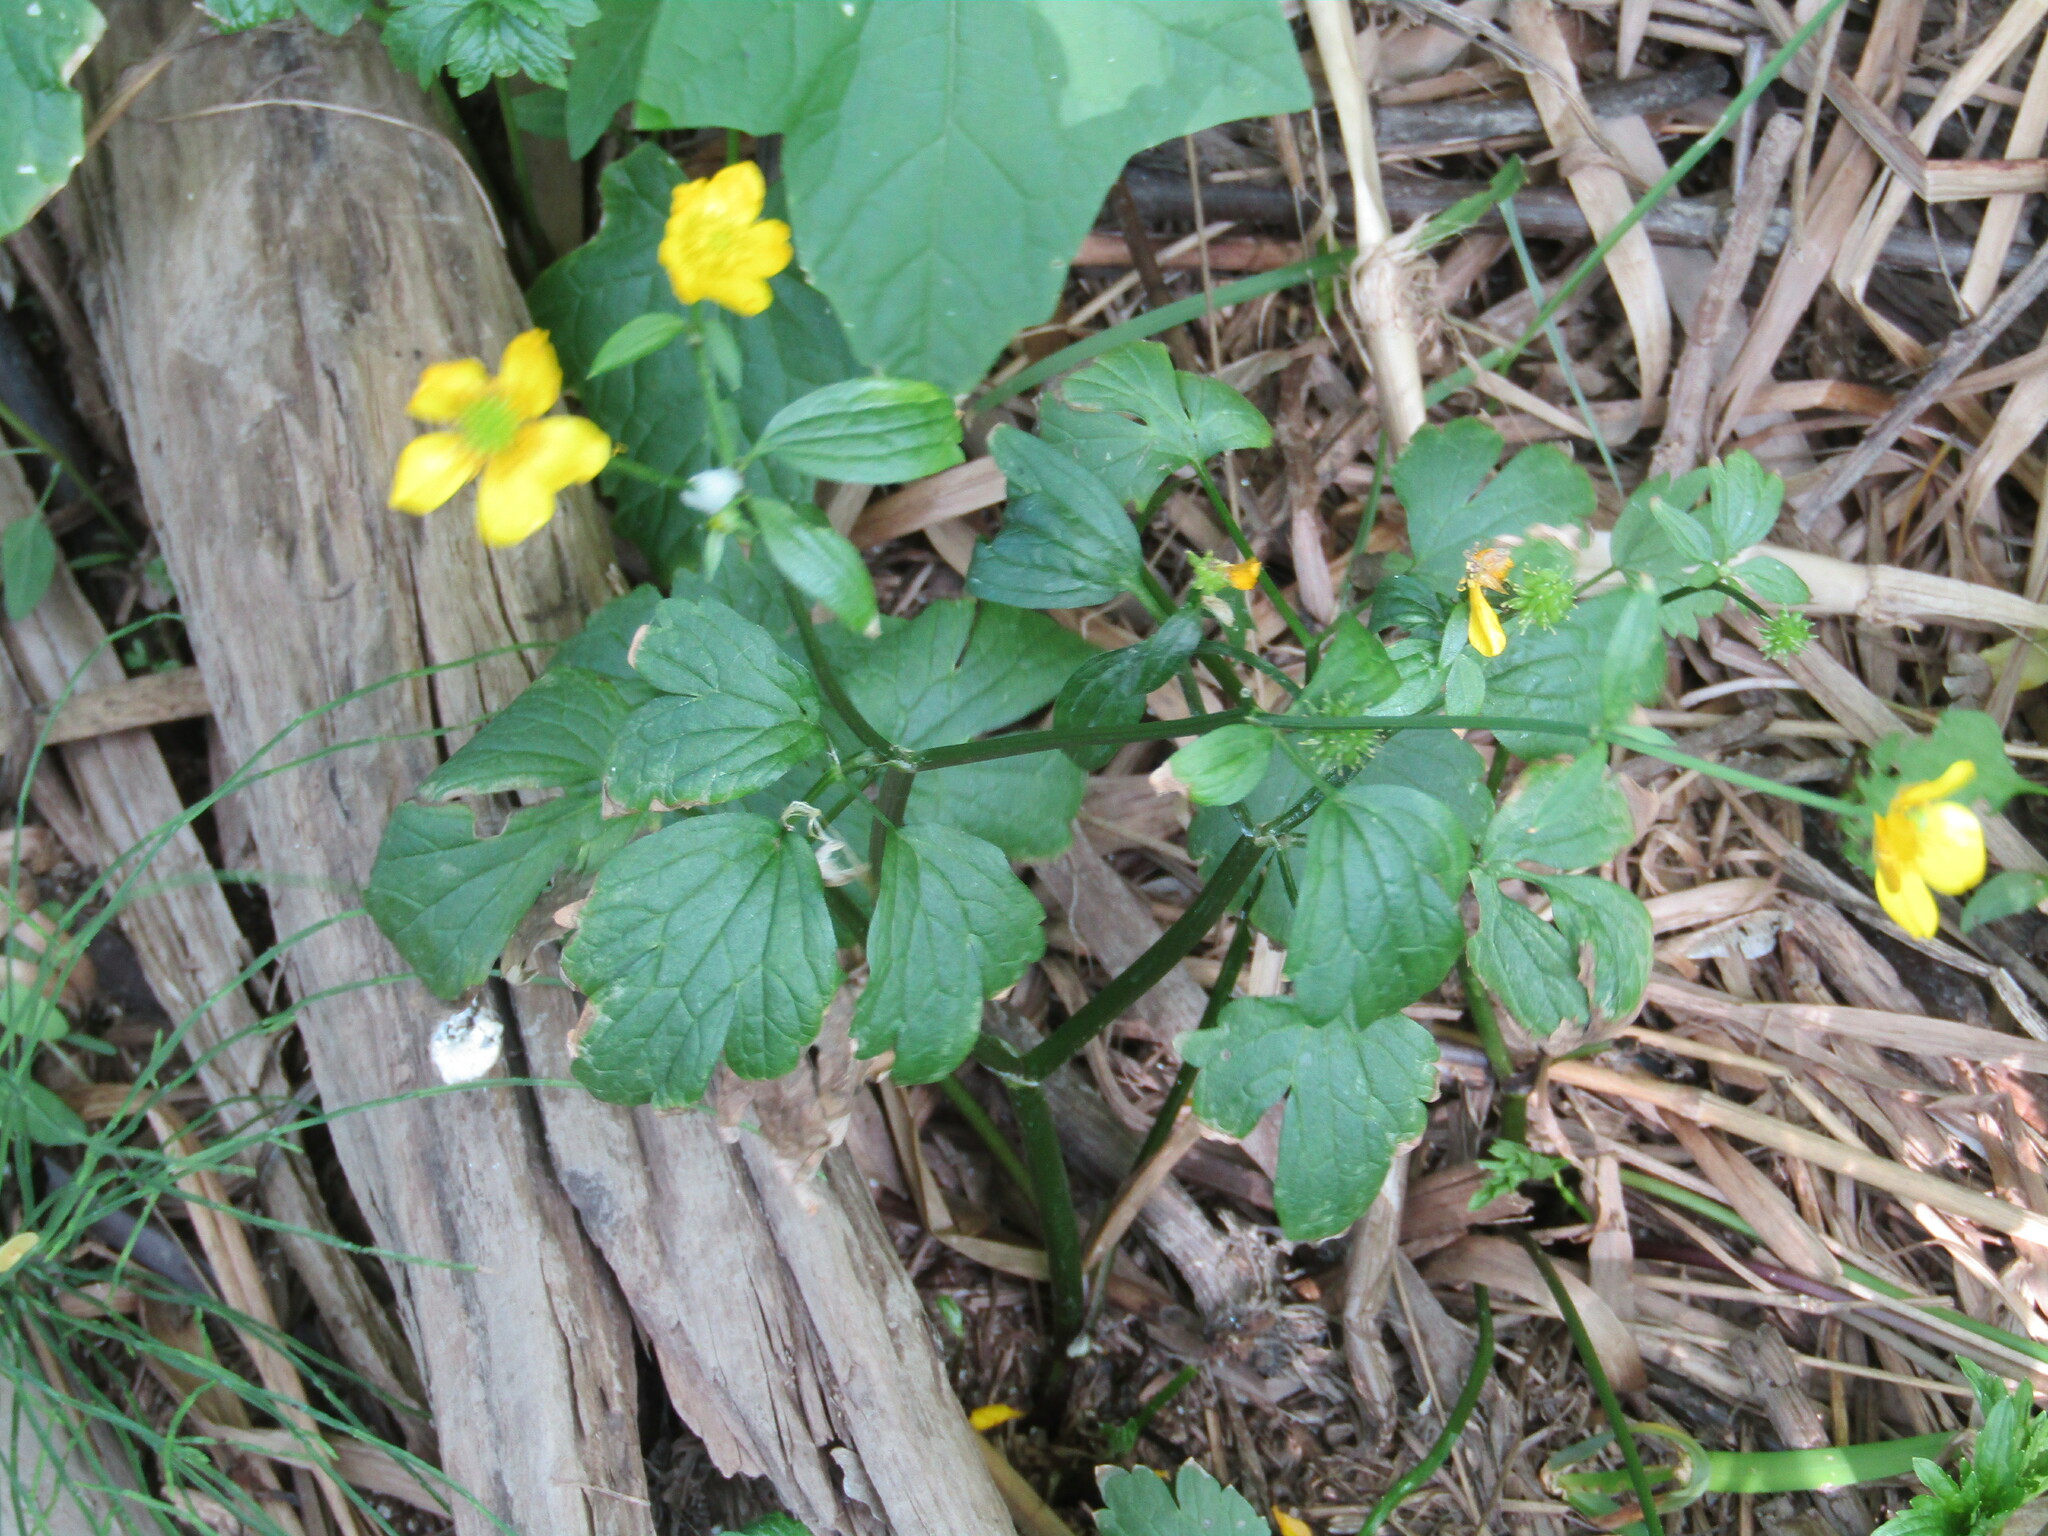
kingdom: Plantae
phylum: Tracheophyta
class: Magnoliopsida
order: Ranunculales
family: Ranunculaceae
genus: Ranunculus
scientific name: Ranunculus repens
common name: Creeping buttercup
